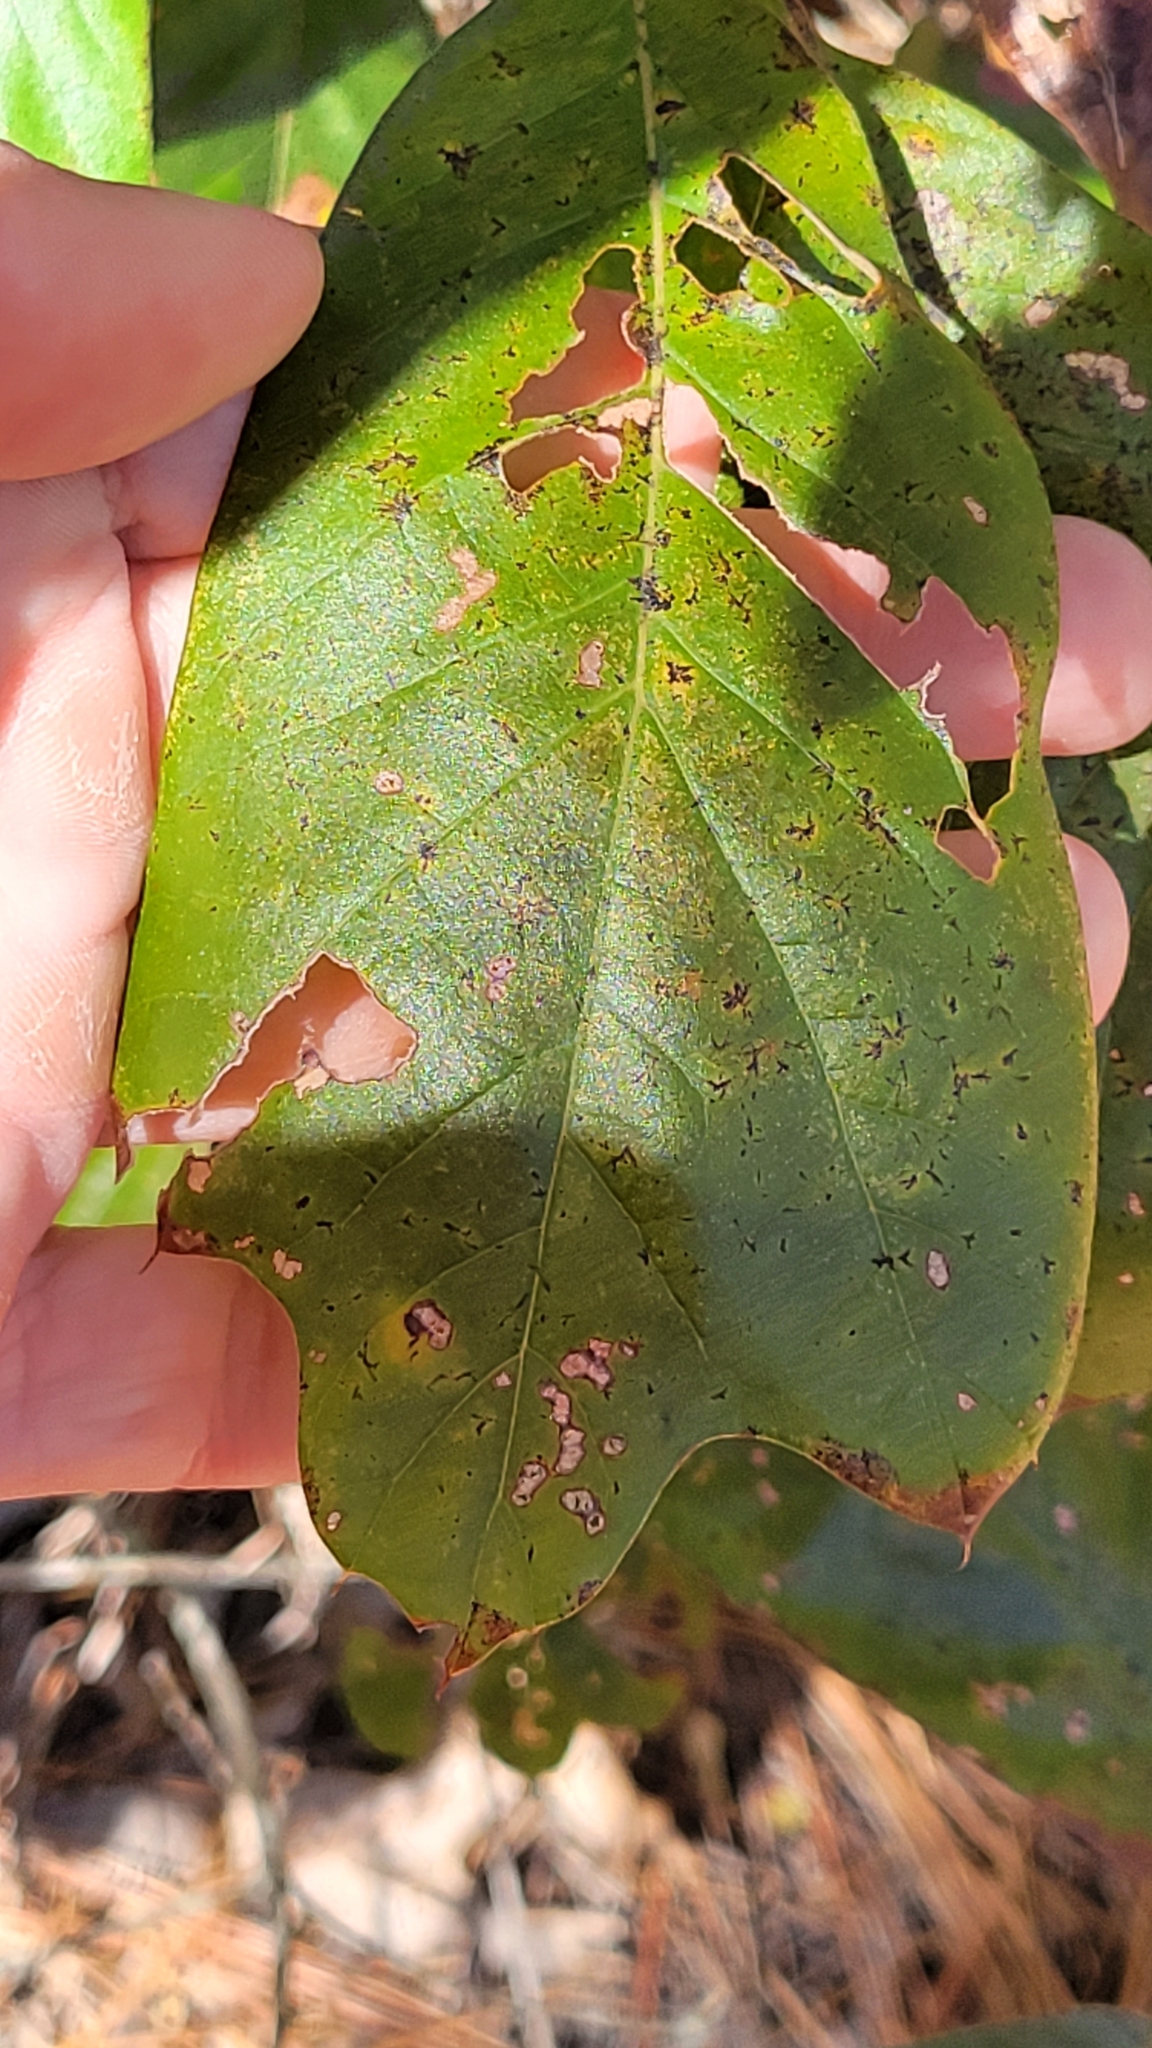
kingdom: Plantae
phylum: Tracheophyta
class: Magnoliopsida
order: Fagales
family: Fagaceae
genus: Quercus
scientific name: Quercus falcata
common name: Southern red oak
